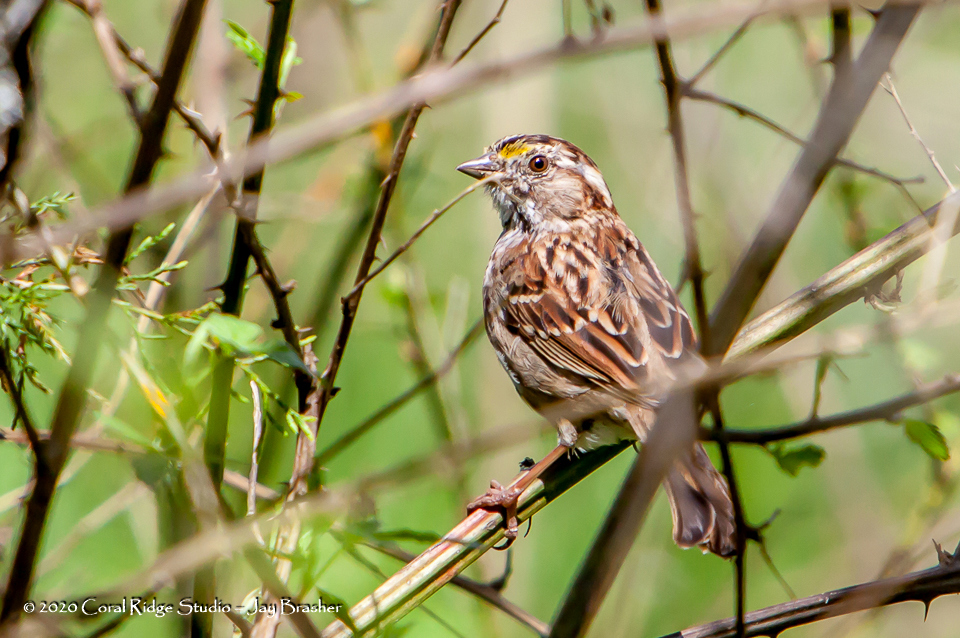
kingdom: Animalia
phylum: Chordata
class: Aves
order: Passeriformes
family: Passerellidae
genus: Zonotrichia
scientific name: Zonotrichia albicollis
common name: White-throated sparrow
